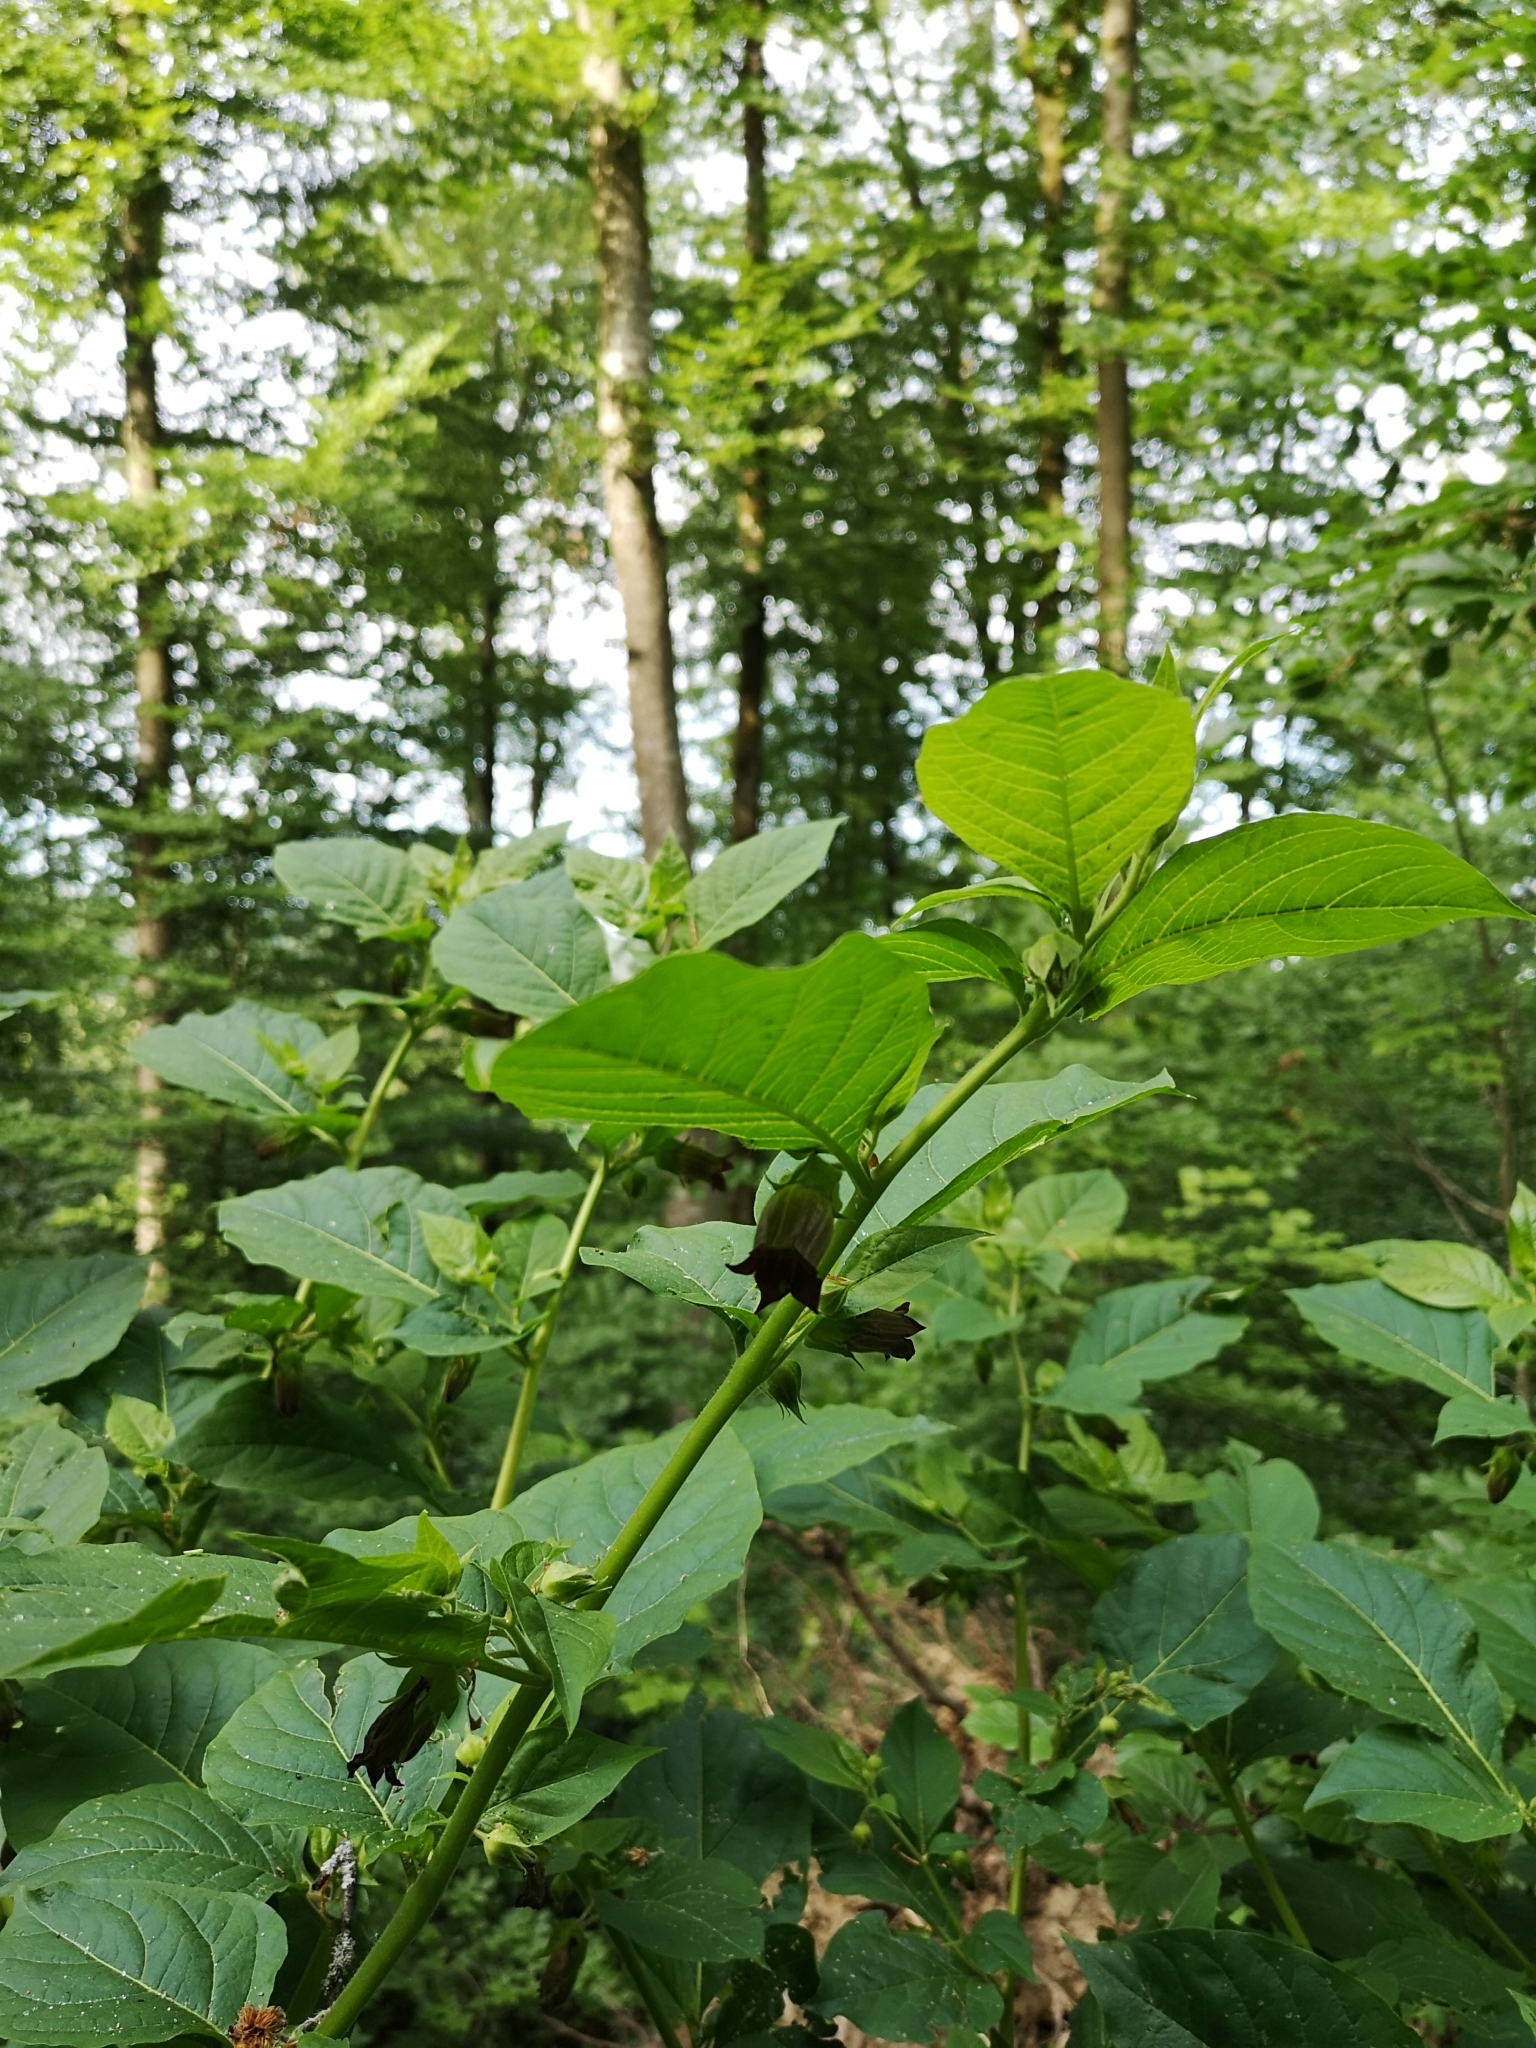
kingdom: Plantae
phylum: Tracheophyta
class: Magnoliopsida
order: Solanales
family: Solanaceae
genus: Atropa
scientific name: Atropa belladonna
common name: Deadly nightshade
